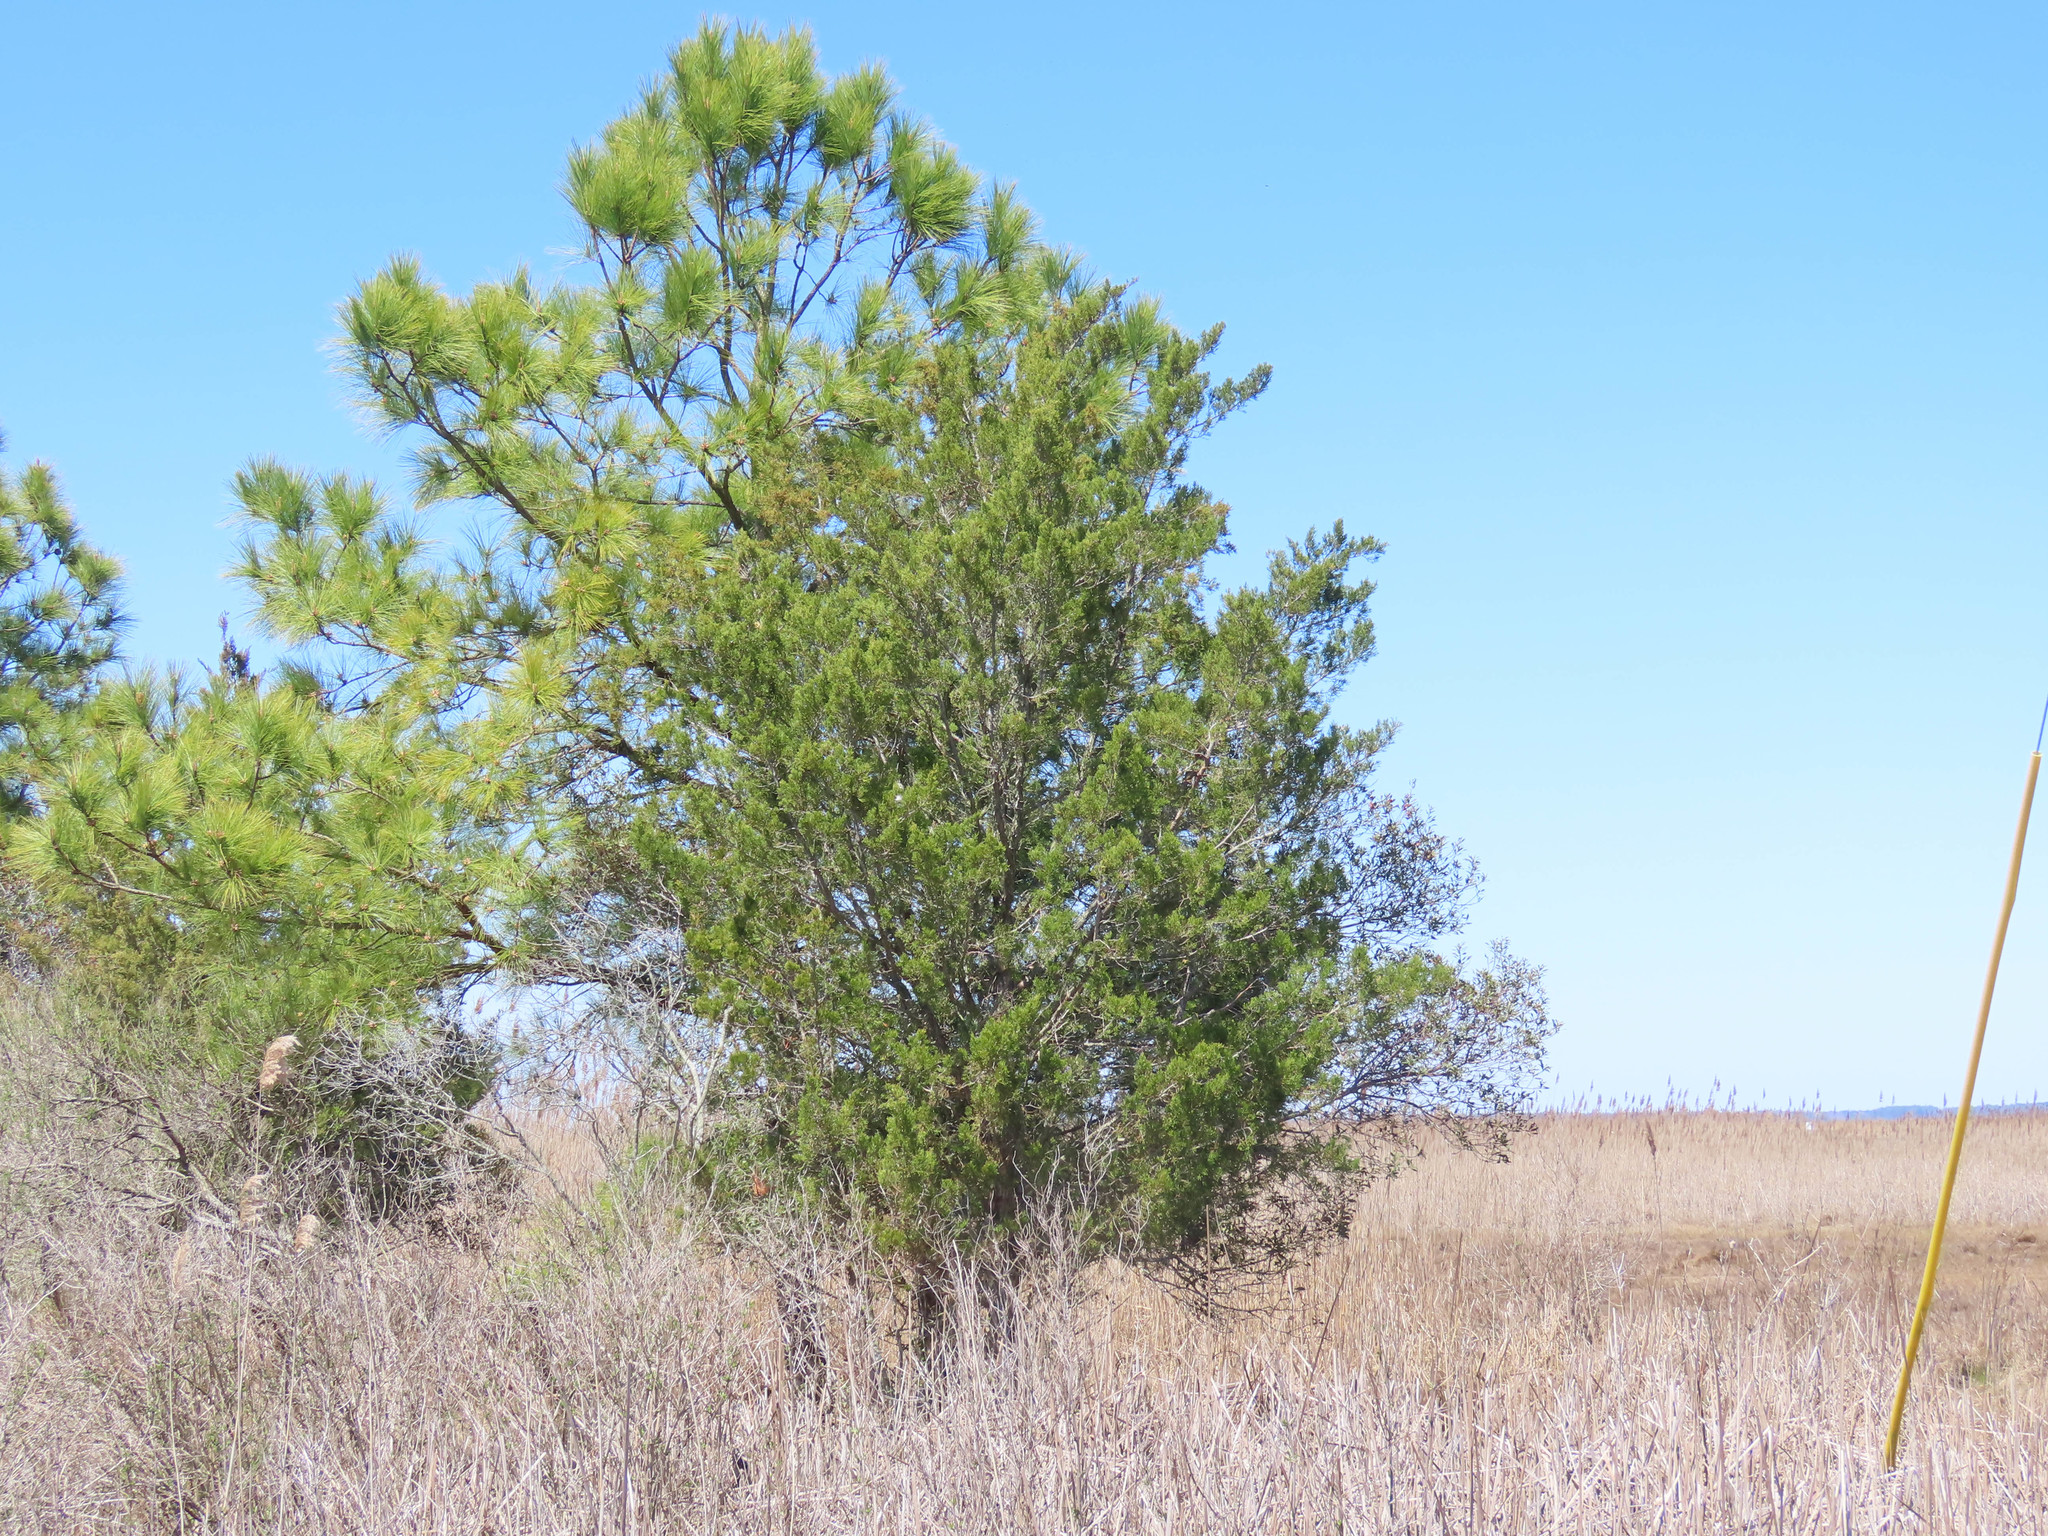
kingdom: Plantae
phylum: Tracheophyta
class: Pinopsida
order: Pinales
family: Cupressaceae
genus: Juniperus
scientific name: Juniperus virginiana
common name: Red juniper
